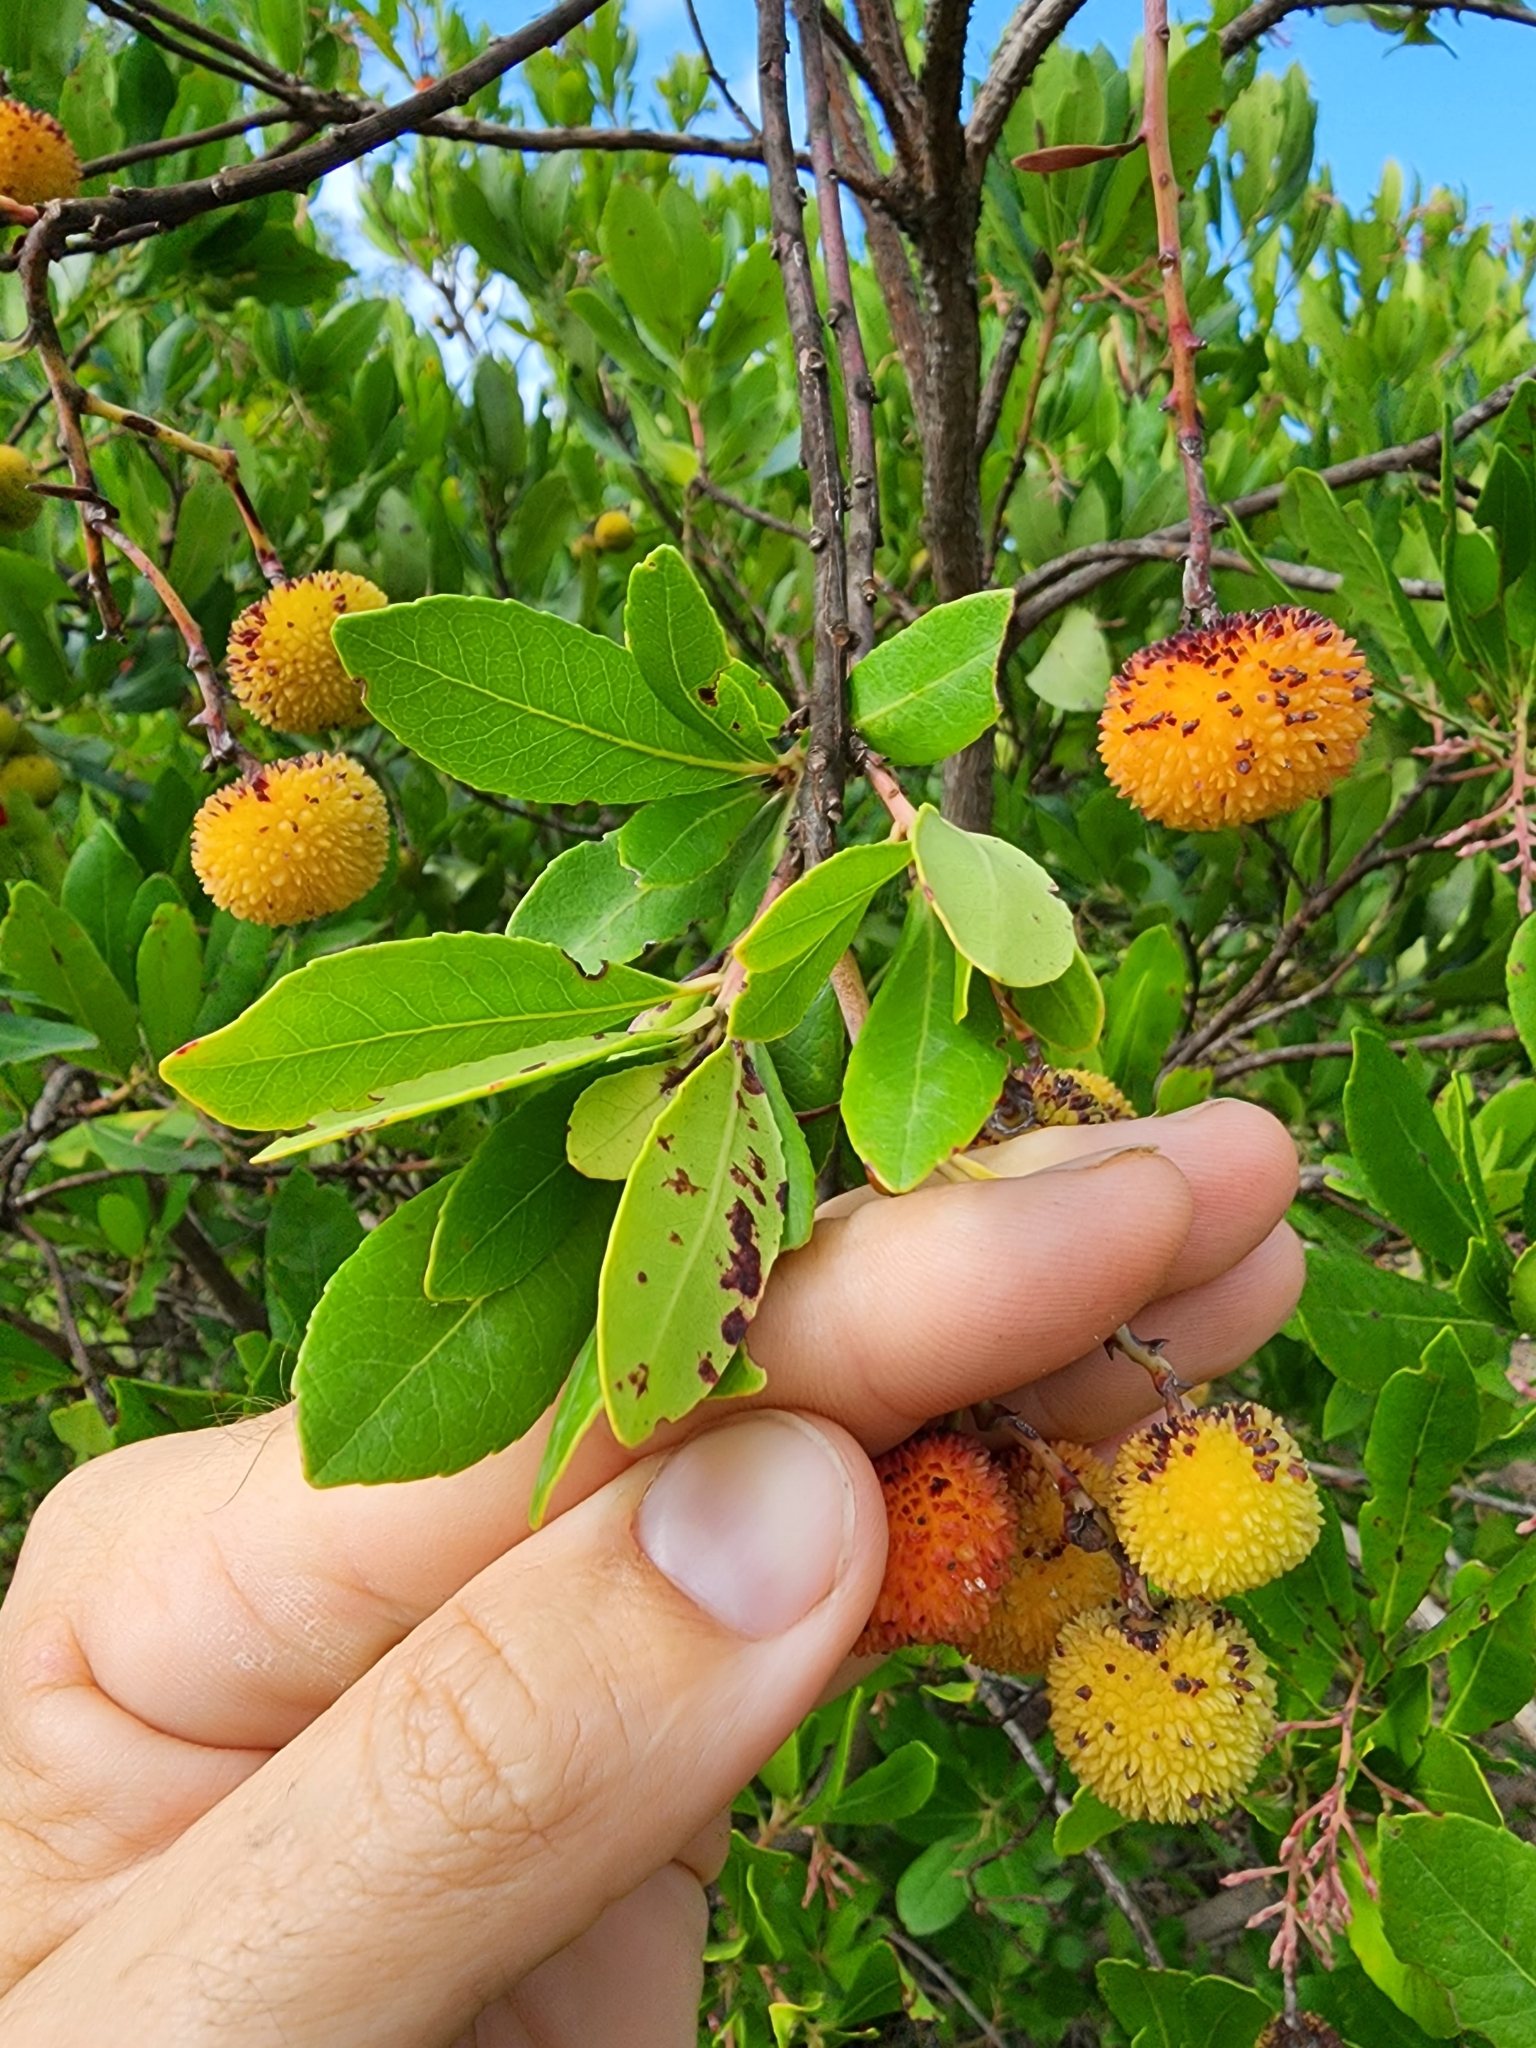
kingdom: Plantae
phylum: Tracheophyta
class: Magnoliopsida
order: Ericales
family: Ericaceae
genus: Arbutus
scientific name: Arbutus unedo
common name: Strawberry-tree
